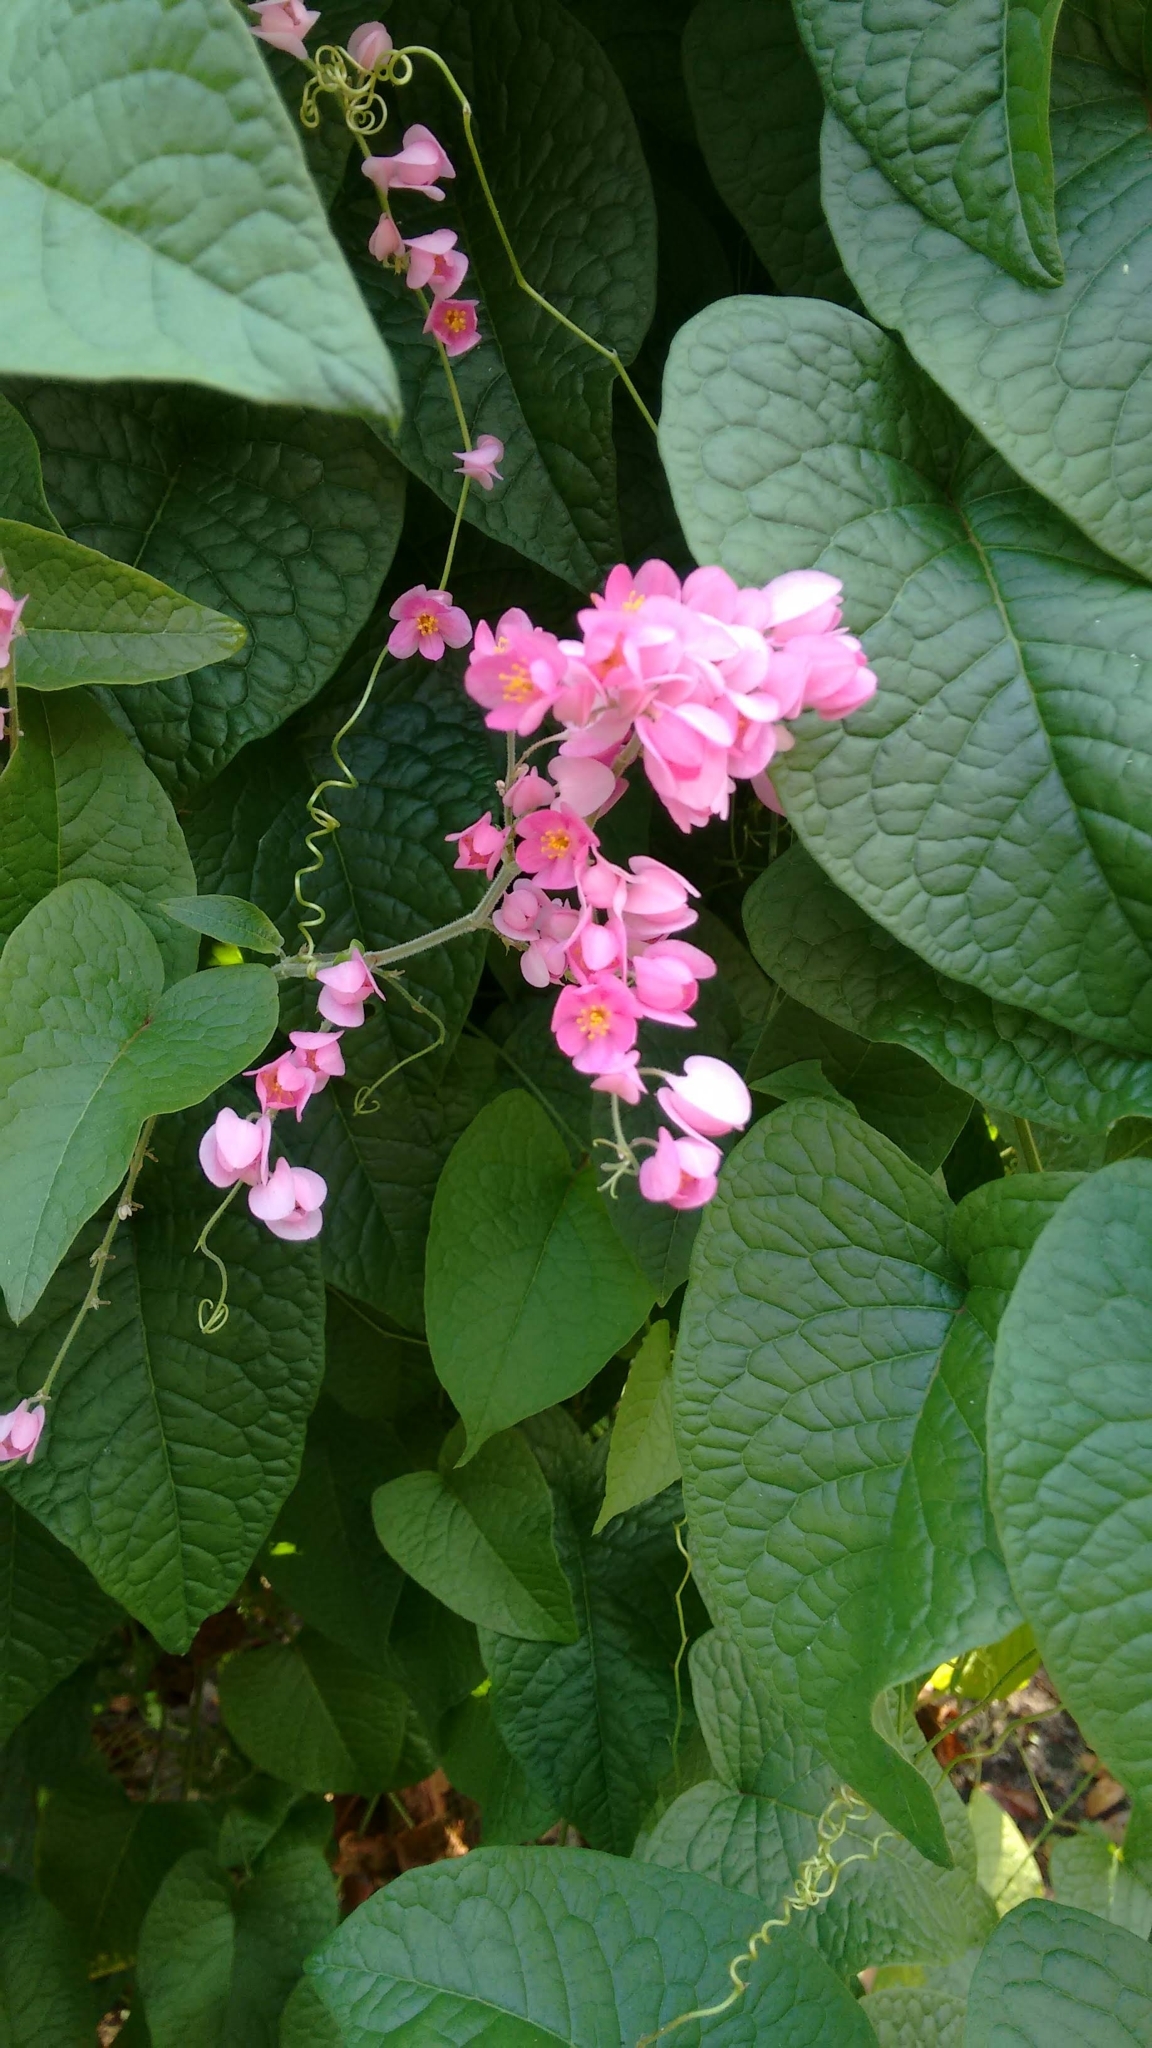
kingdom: Plantae
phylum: Tracheophyta
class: Magnoliopsida
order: Caryophyllales
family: Polygonaceae
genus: Antigonon
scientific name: Antigonon leptopus
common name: Coral vine
